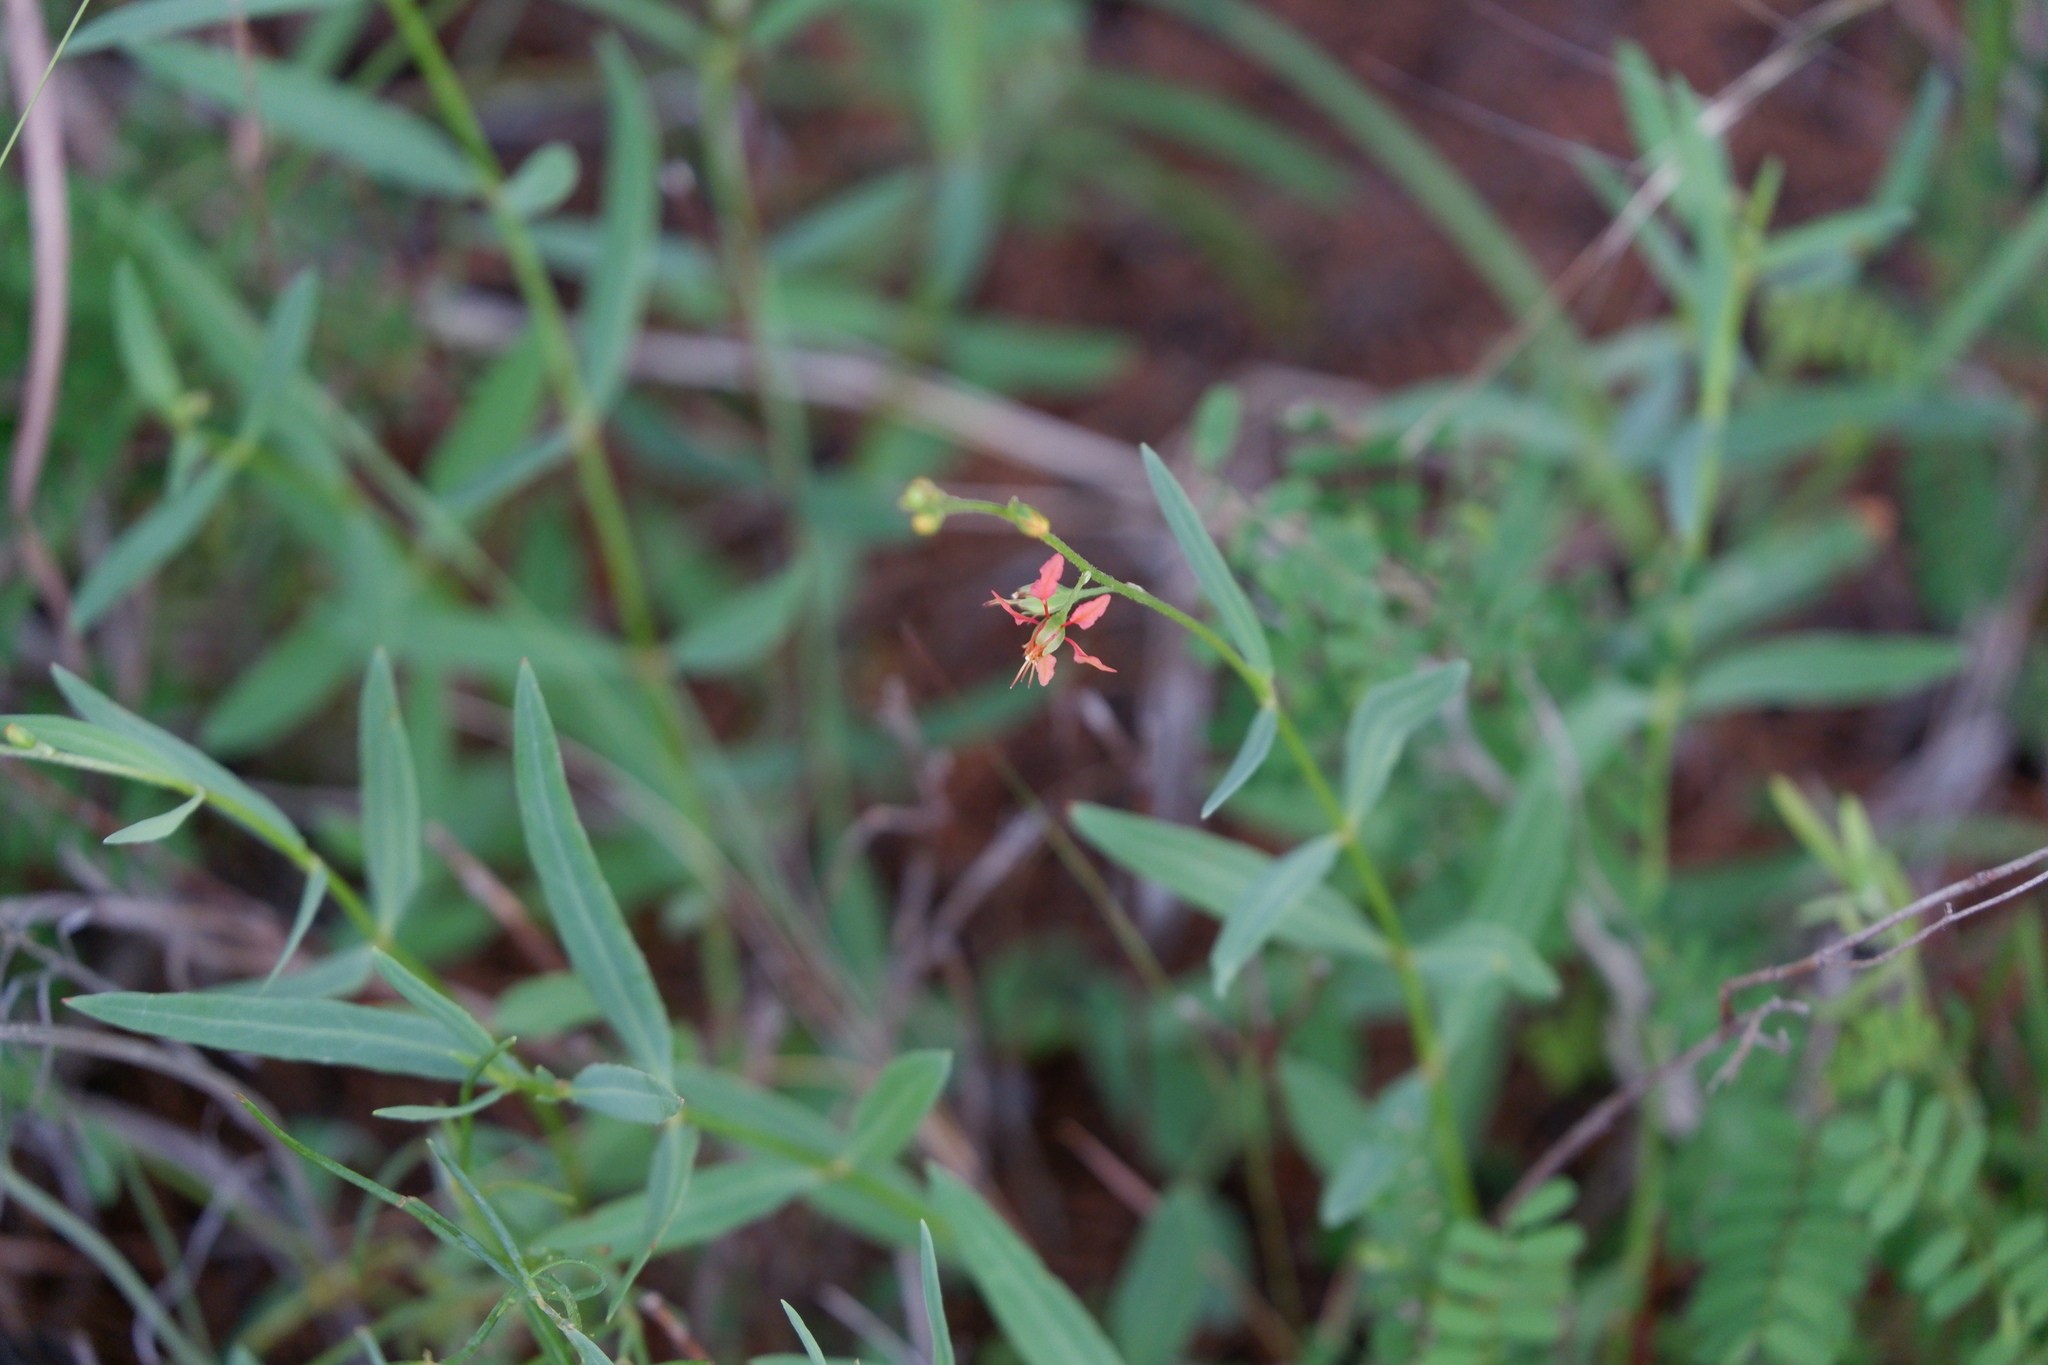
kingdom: Plantae
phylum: Tracheophyta
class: Magnoliopsida
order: Malpighiales
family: Malpighiaceae
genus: Galphimia
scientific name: Galphimia angustifolia
